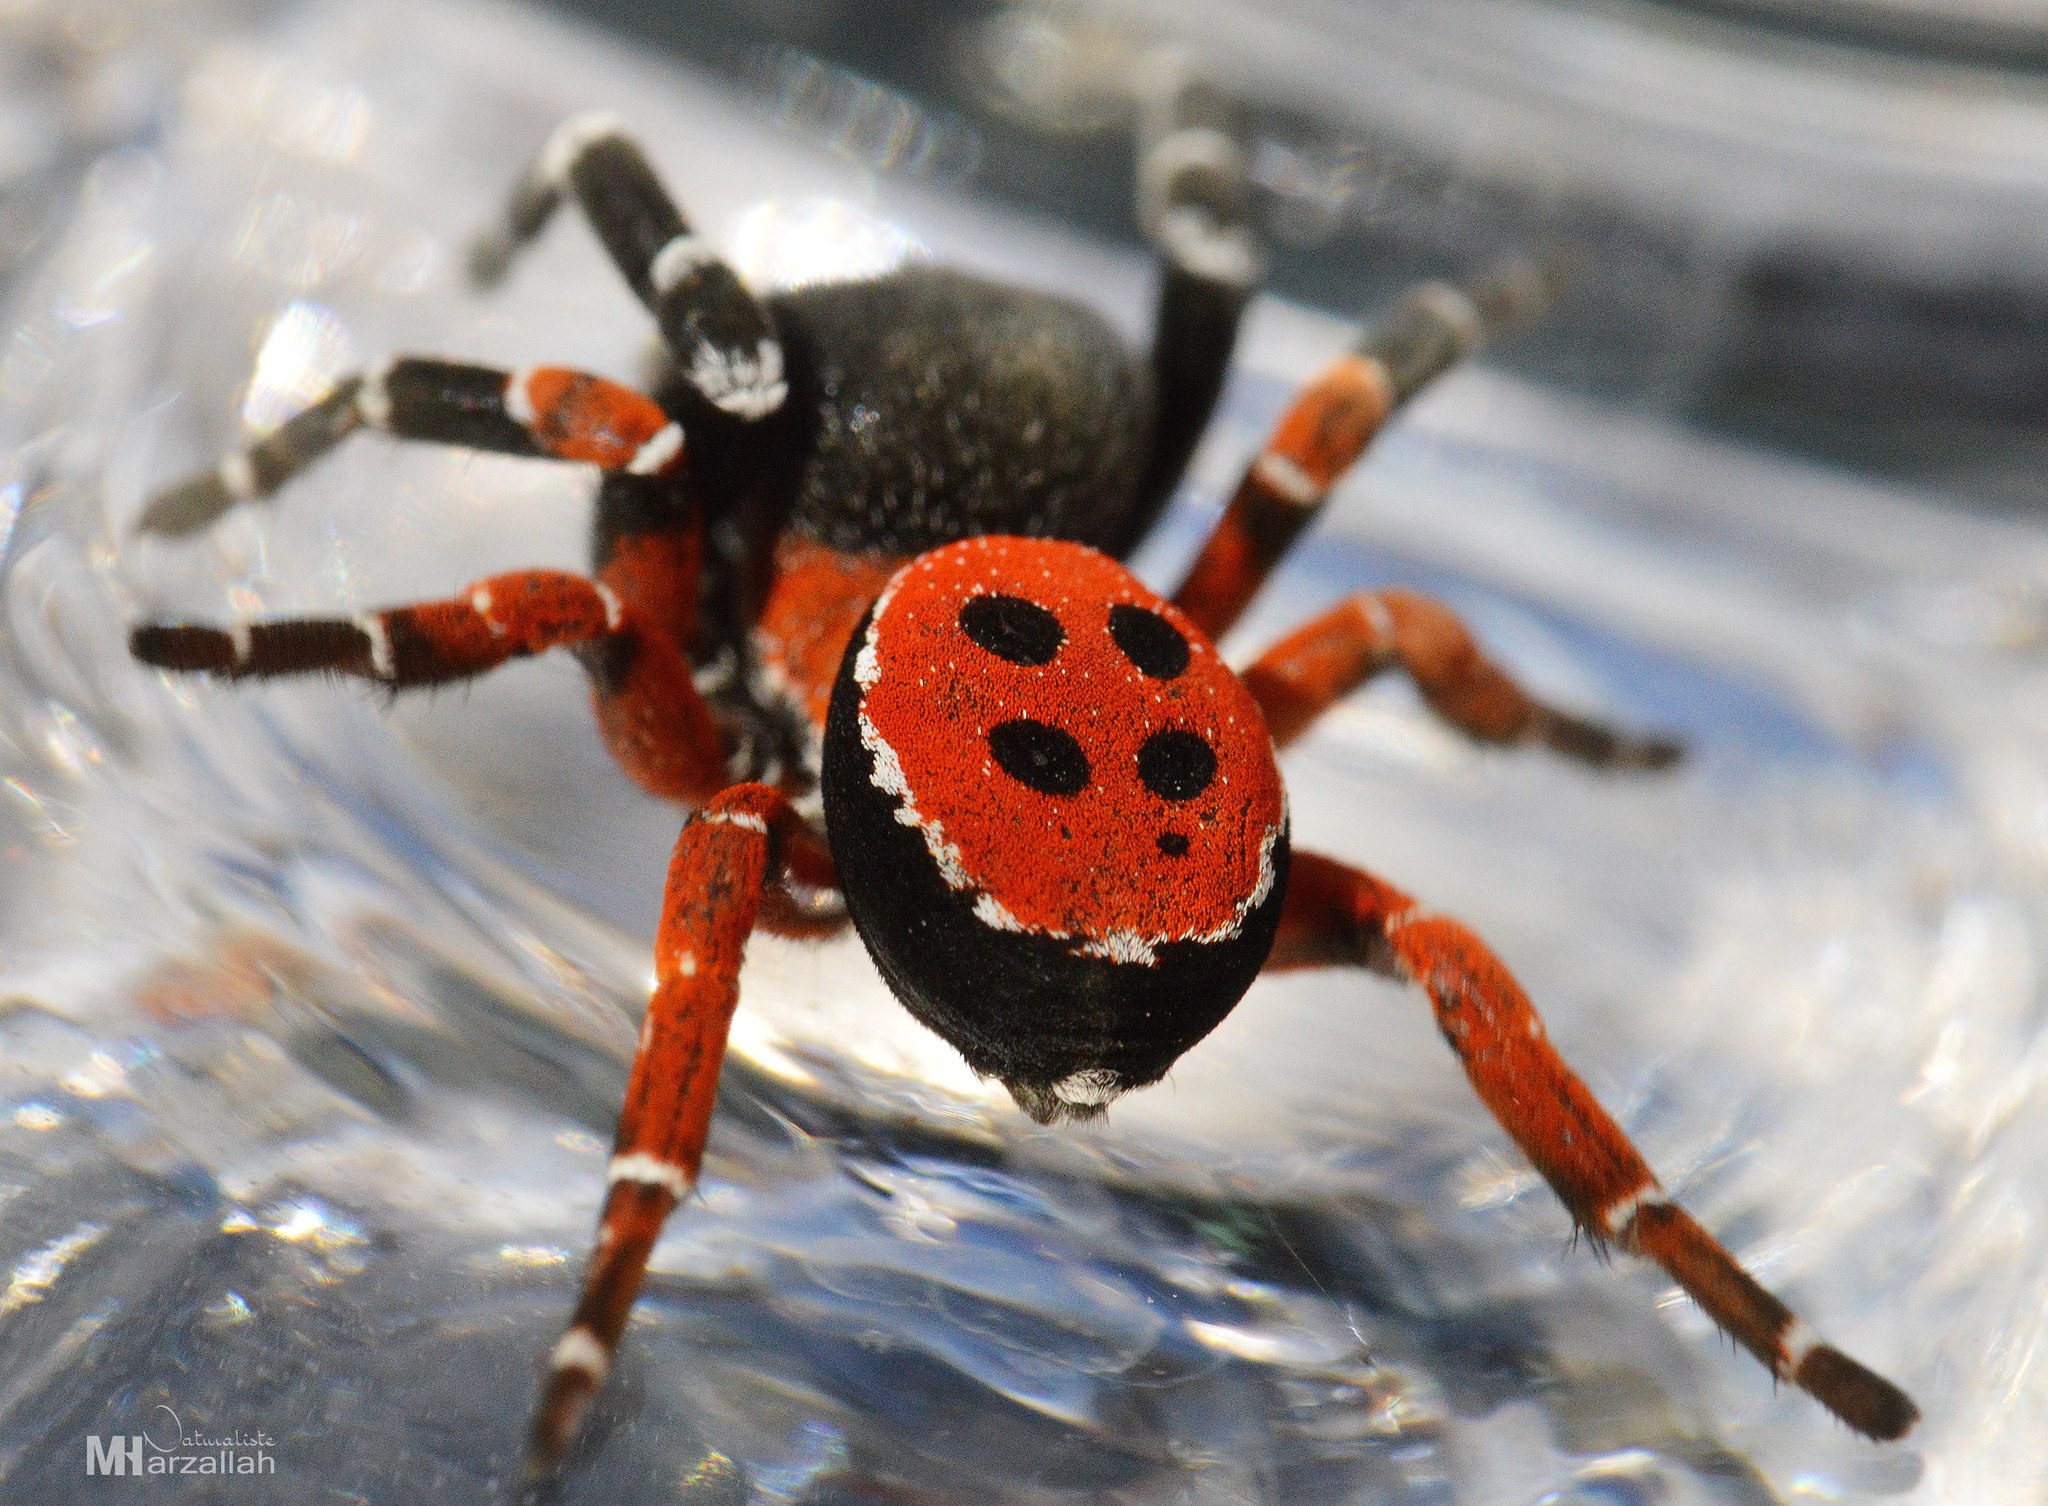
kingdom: Animalia
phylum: Arthropoda
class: Arachnida
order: Araneae
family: Eresidae
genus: Eresus
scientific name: Eresus kollari
